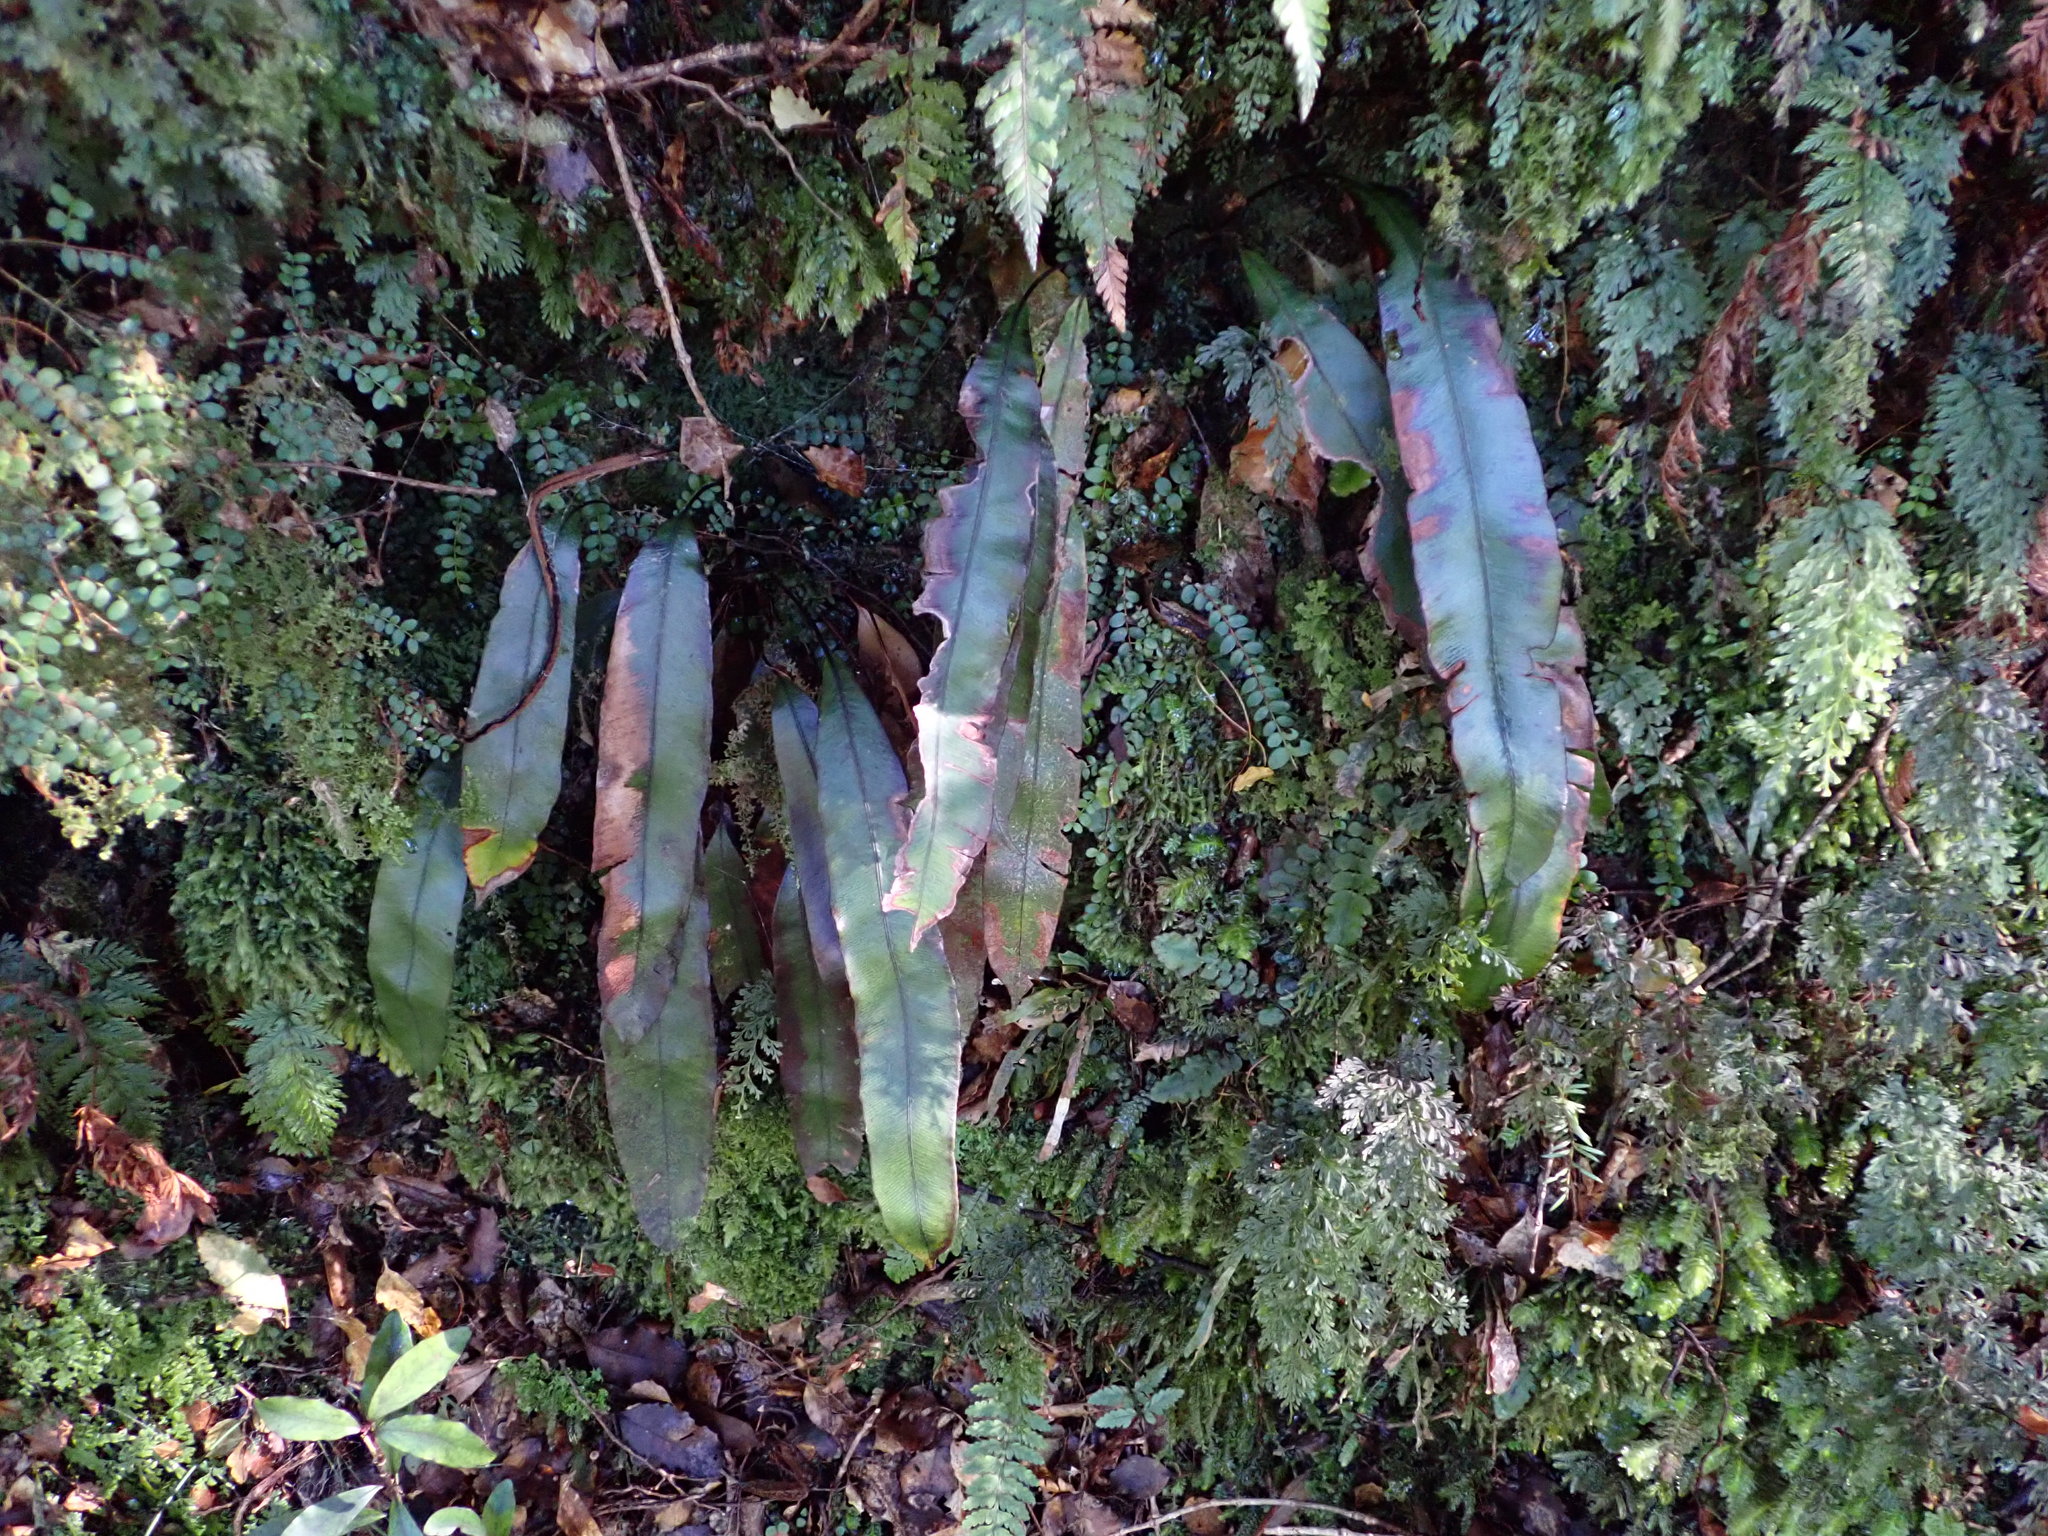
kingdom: Plantae
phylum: Tracheophyta
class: Polypodiopsida
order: Polypodiales
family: Blechnaceae
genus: Austroblechnum
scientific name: Austroblechnum colensoi
